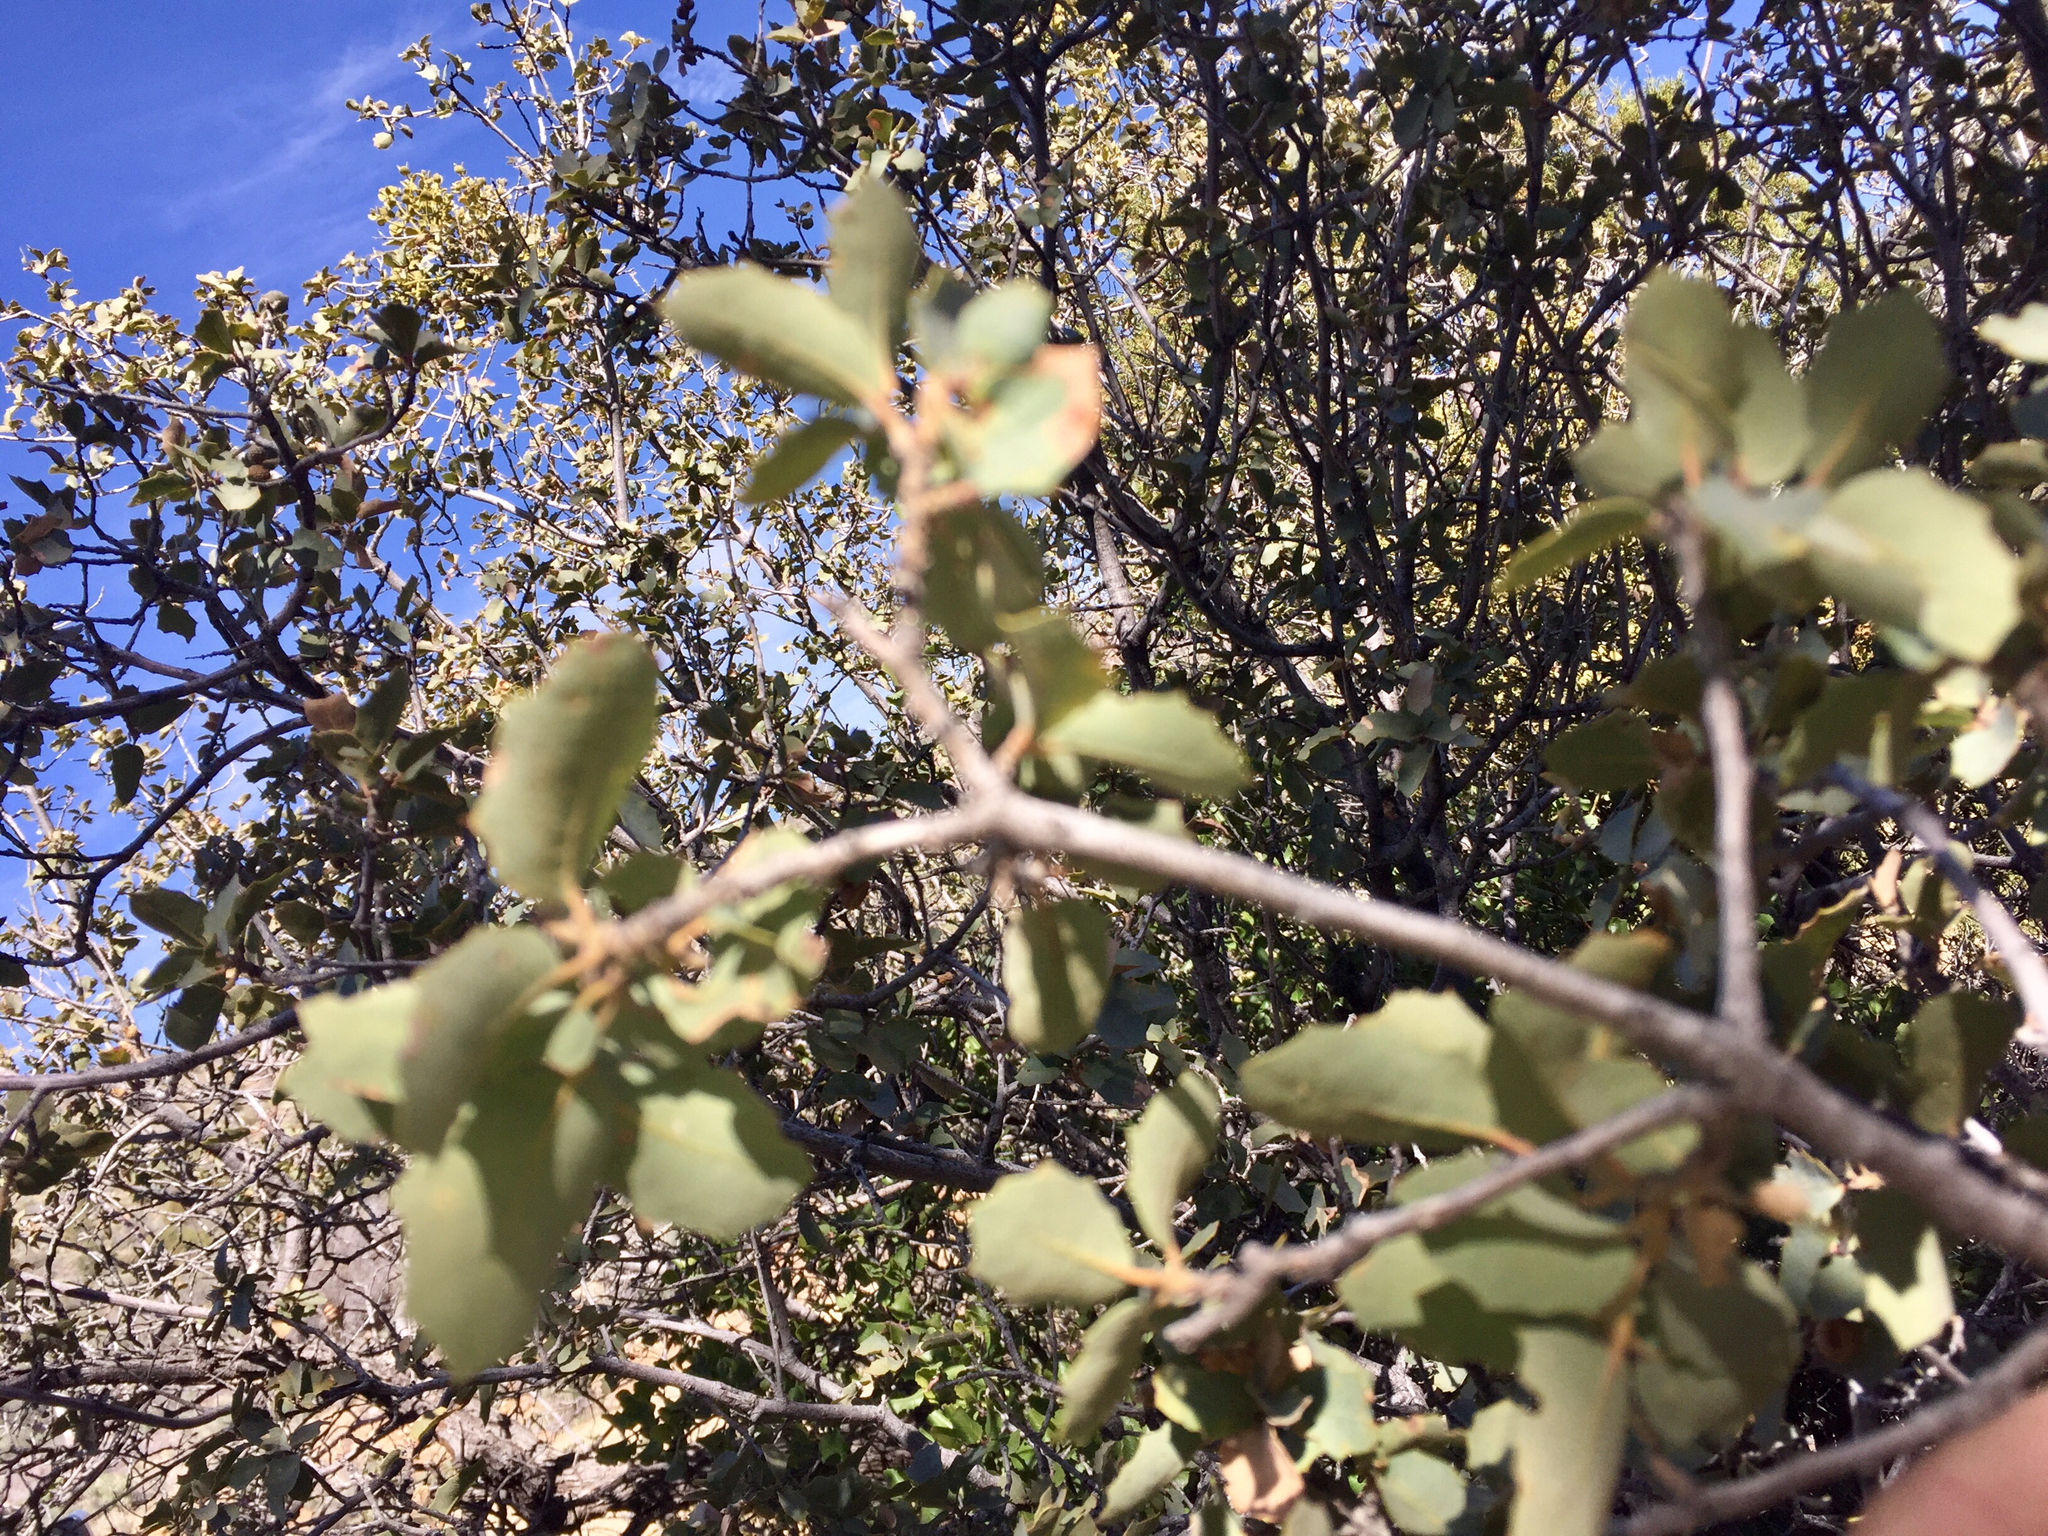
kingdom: Plantae
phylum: Tracheophyta
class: Magnoliopsida
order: Fagales
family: Fagaceae
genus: Quercus
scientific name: Quercus turbinella
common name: Sonoran scrub oak
